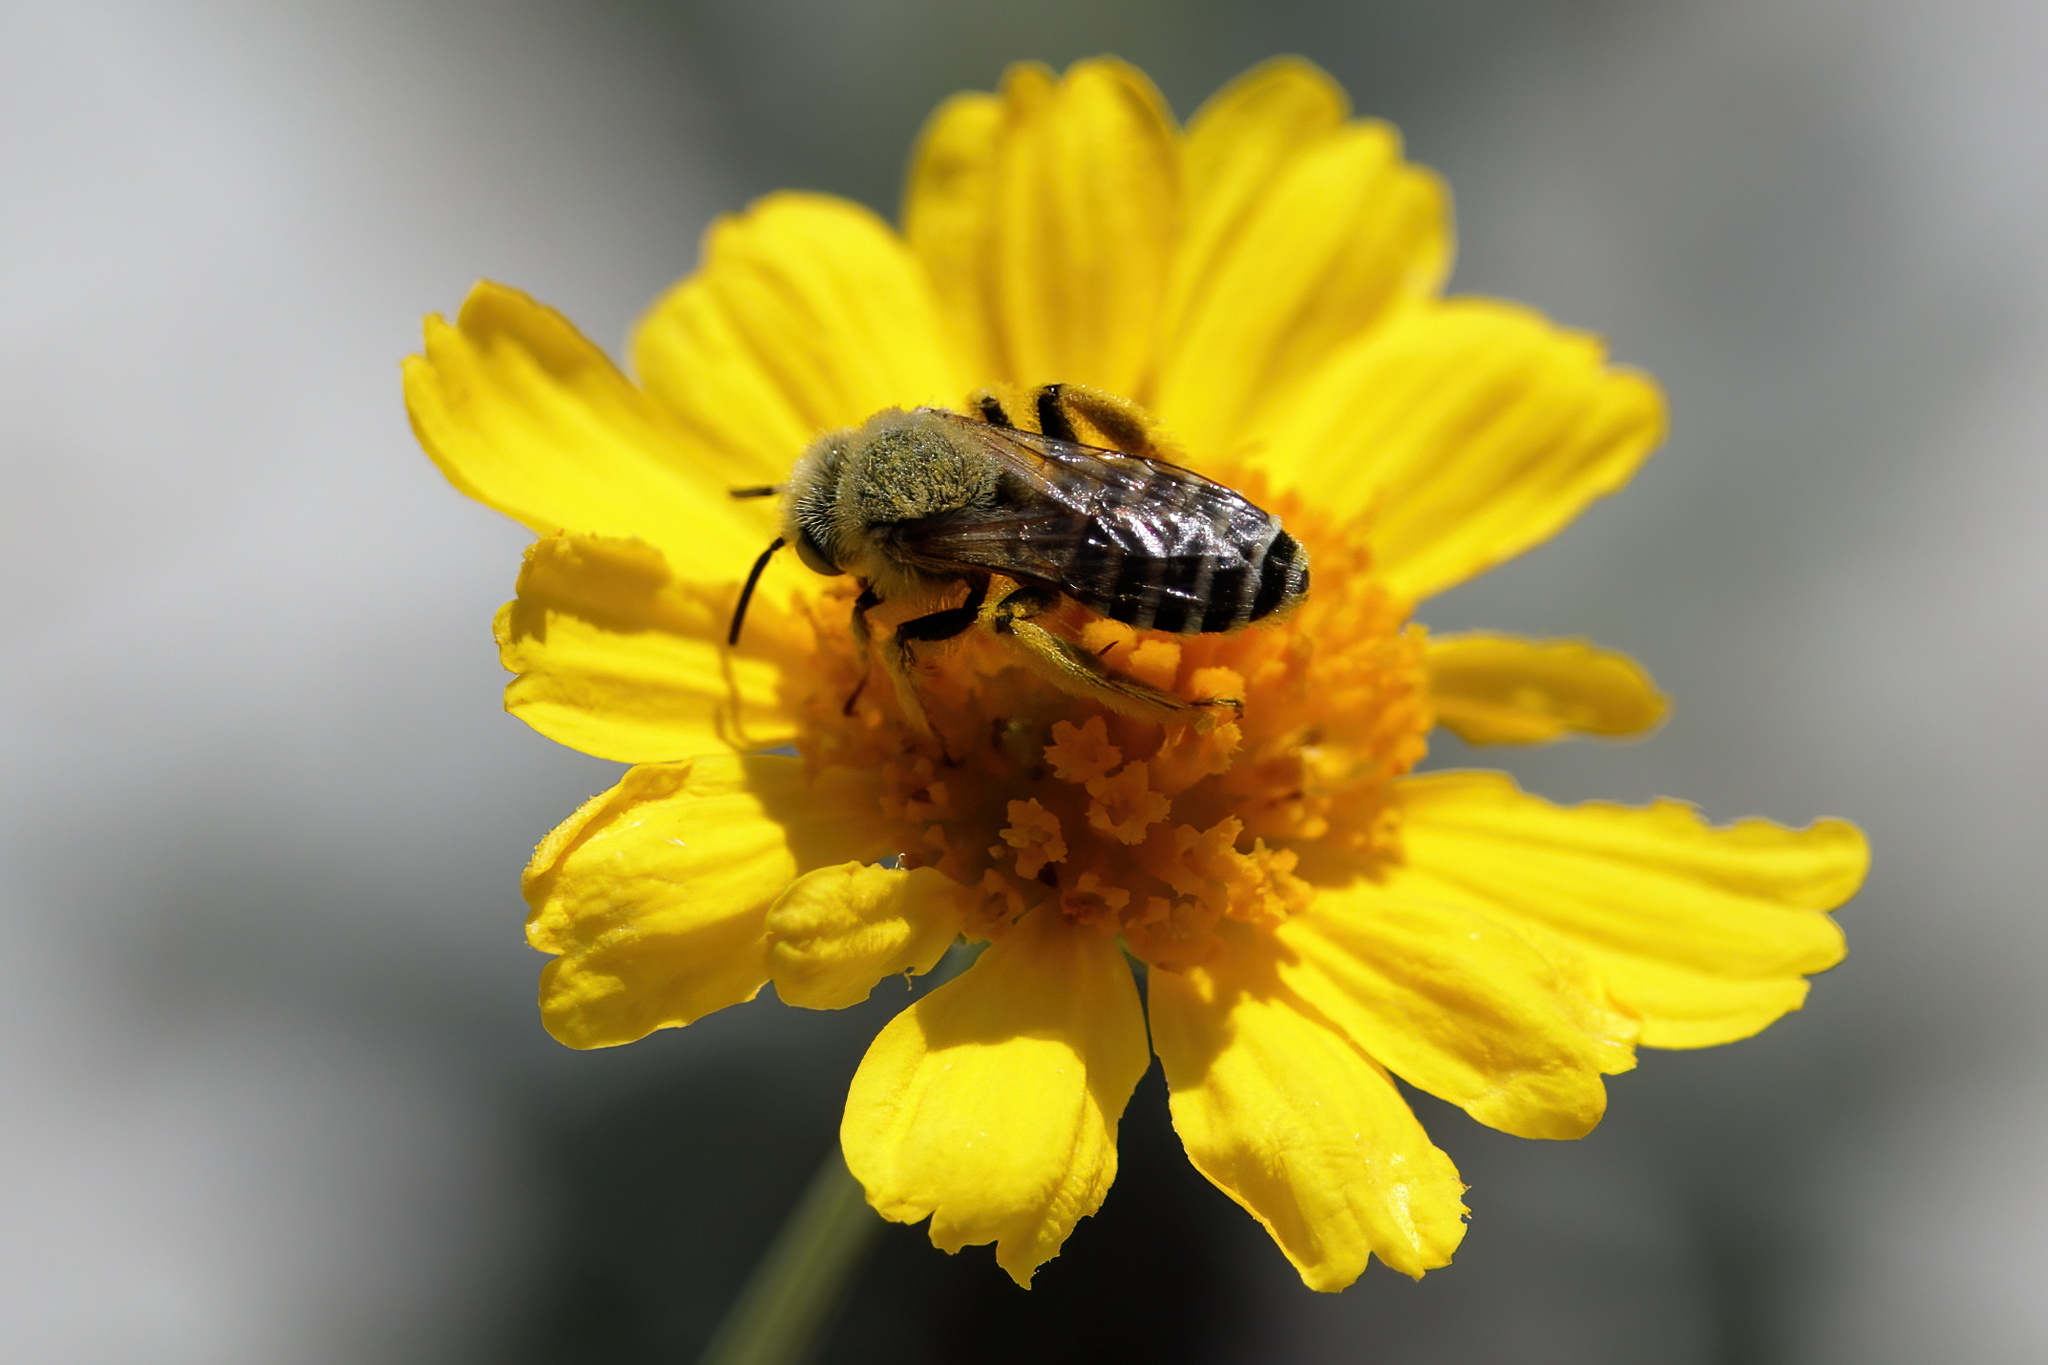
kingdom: Animalia
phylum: Arthropoda
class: Insecta
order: Hymenoptera
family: Melittidae
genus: Hesperapis
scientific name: Hesperapis oraria
